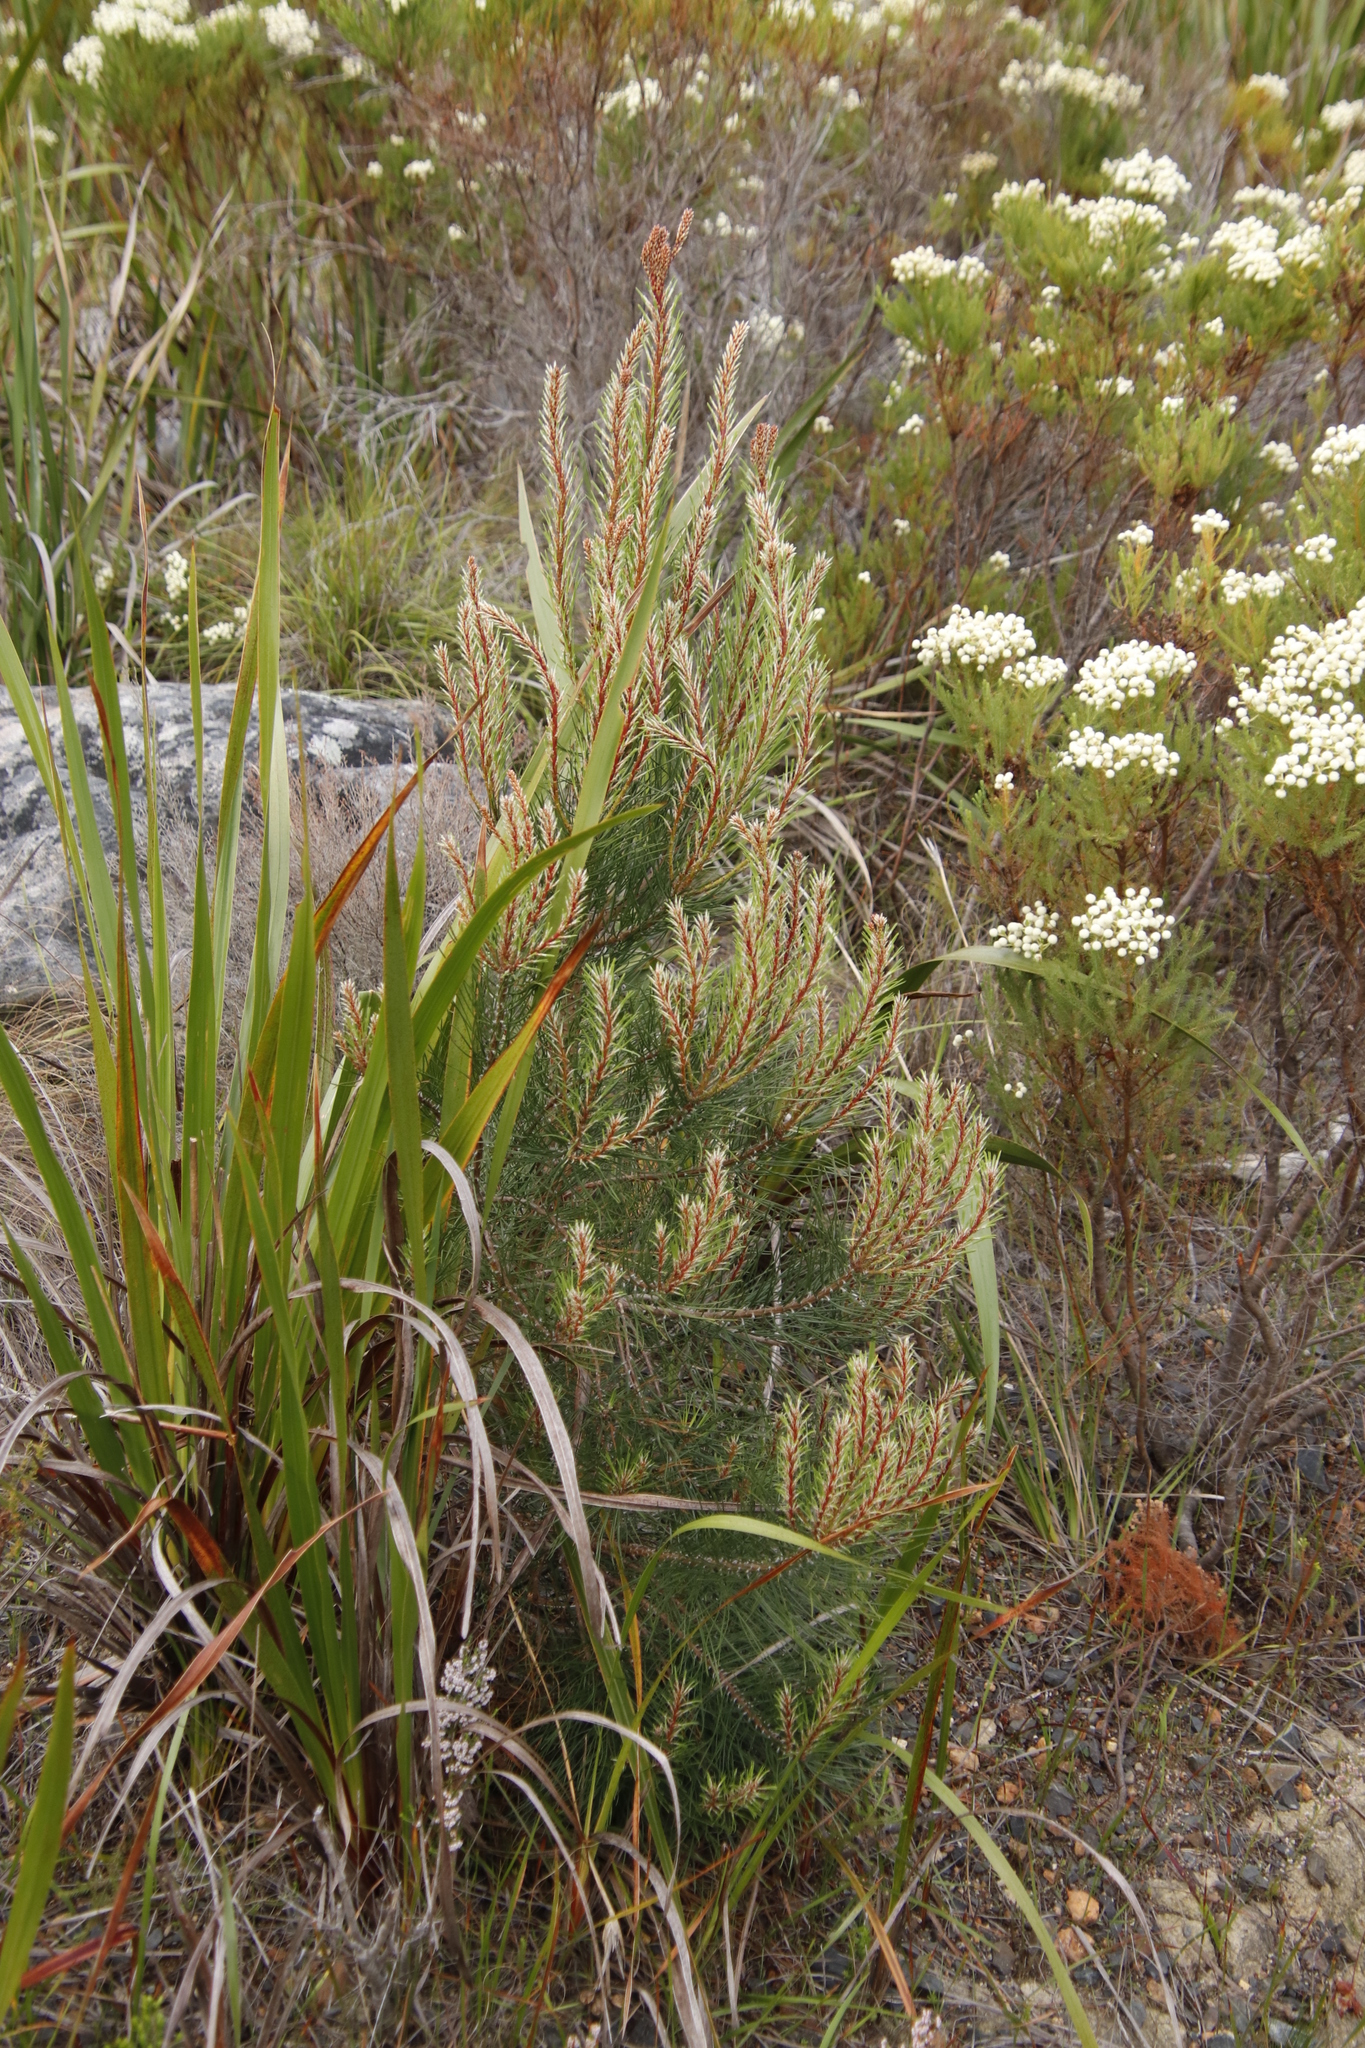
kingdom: Plantae
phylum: Tracheophyta
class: Pinopsida
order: Pinales
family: Pinaceae
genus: Pinus
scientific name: Pinus pinaster
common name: Maritime pine
